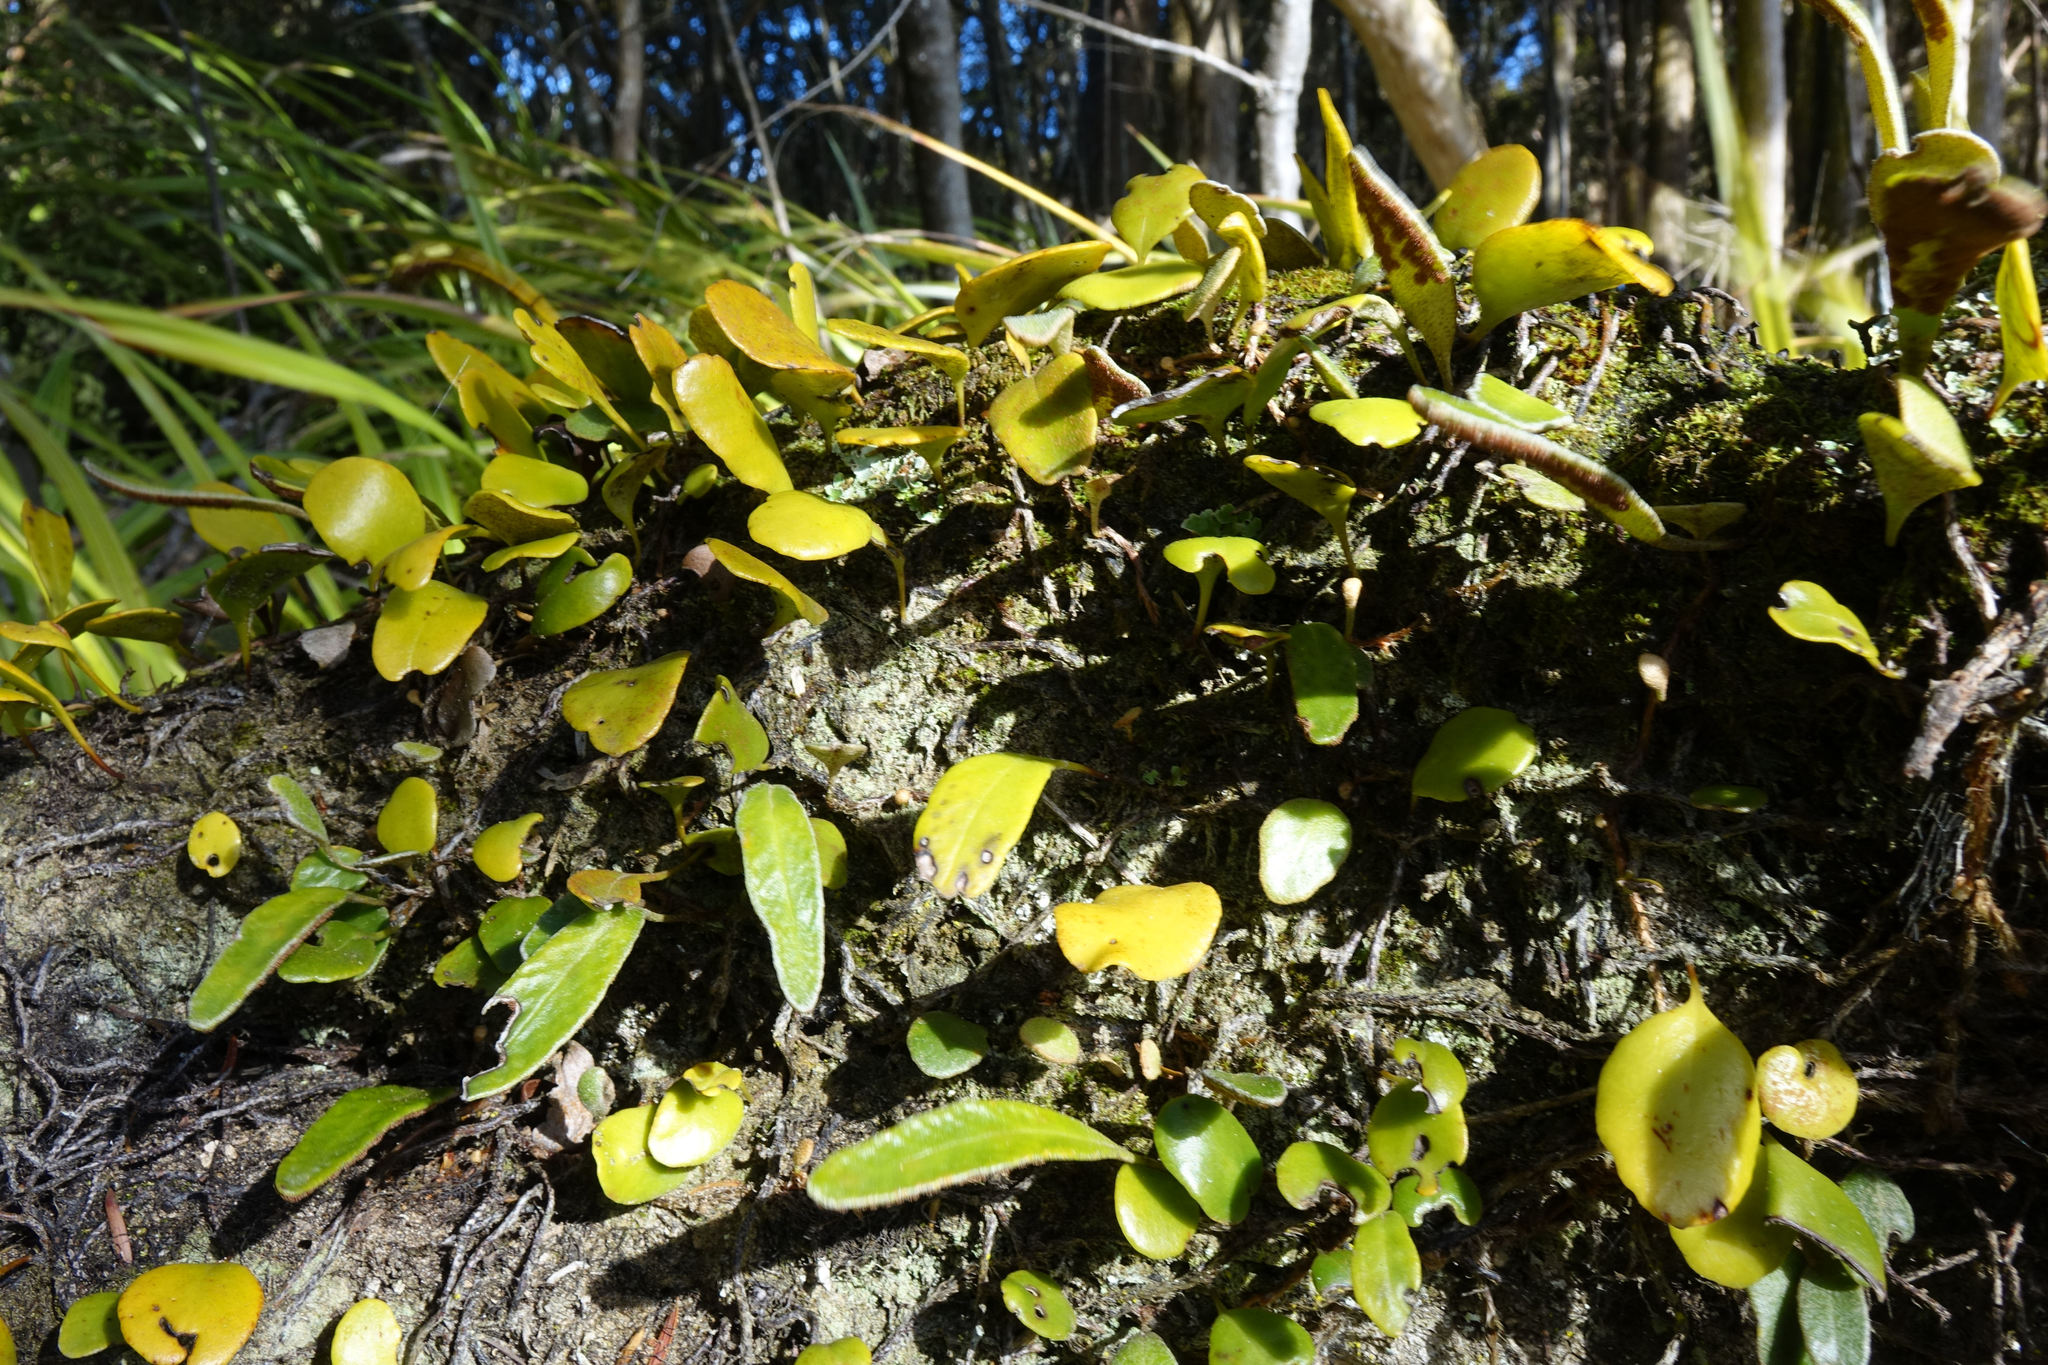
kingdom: Plantae
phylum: Tracheophyta
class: Polypodiopsida
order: Polypodiales
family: Polypodiaceae
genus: Pyrrosia
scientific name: Pyrrosia eleagnifolia
